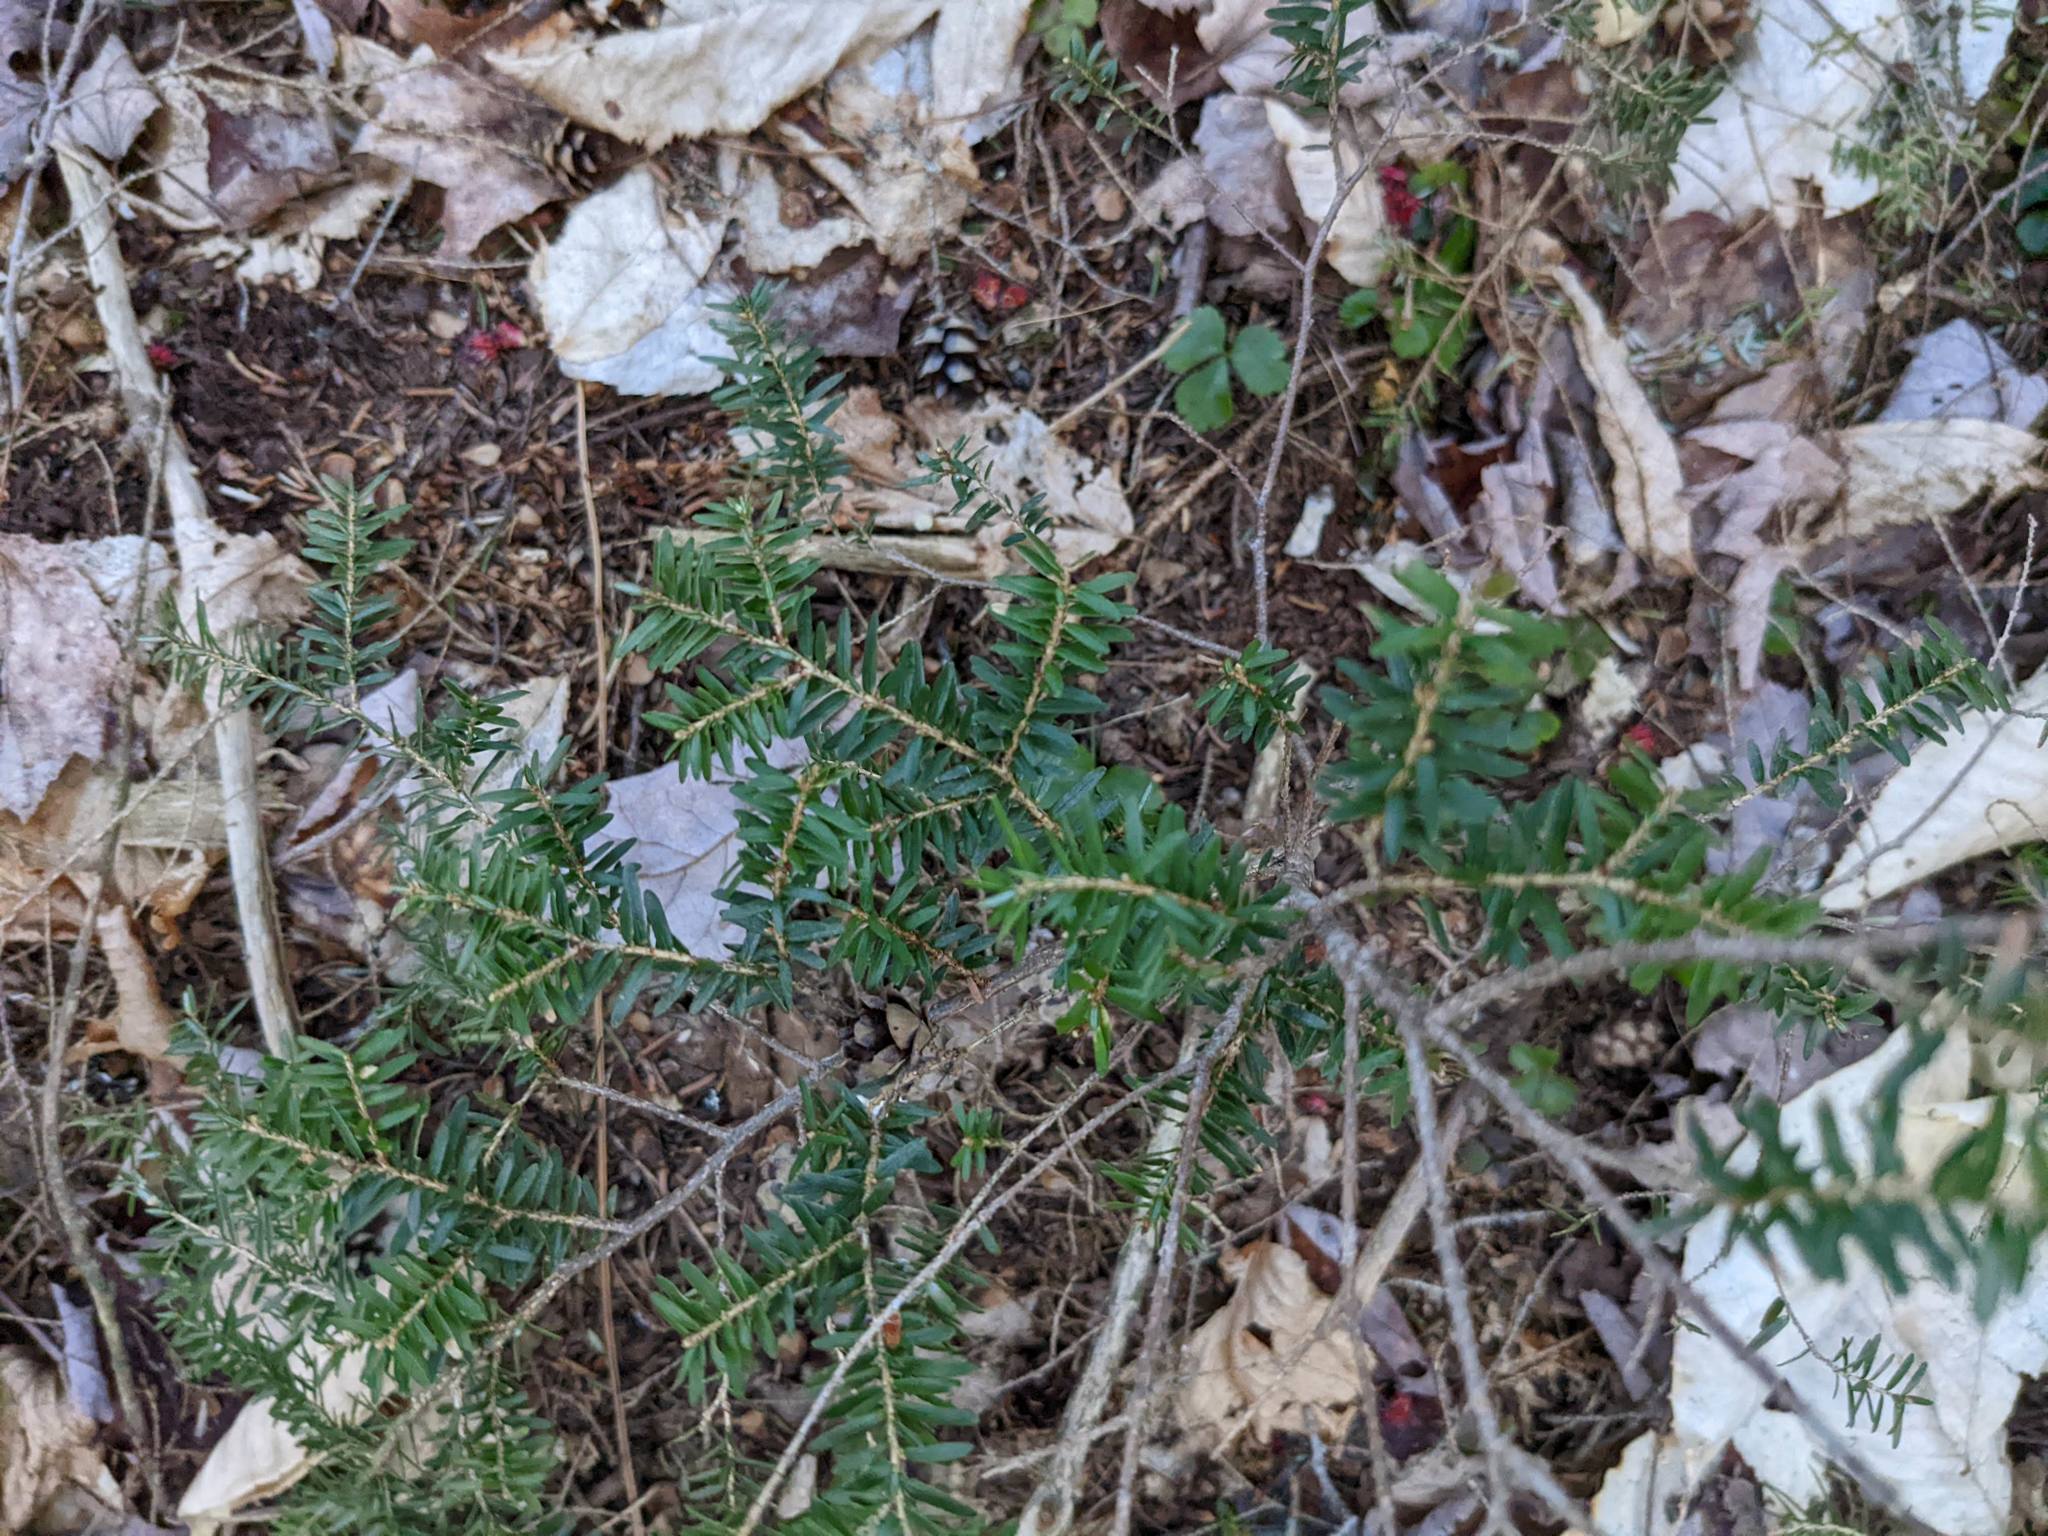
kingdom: Plantae
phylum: Tracheophyta
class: Pinopsida
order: Pinales
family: Pinaceae
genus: Tsuga
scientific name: Tsuga canadensis
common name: Eastern hemlock
